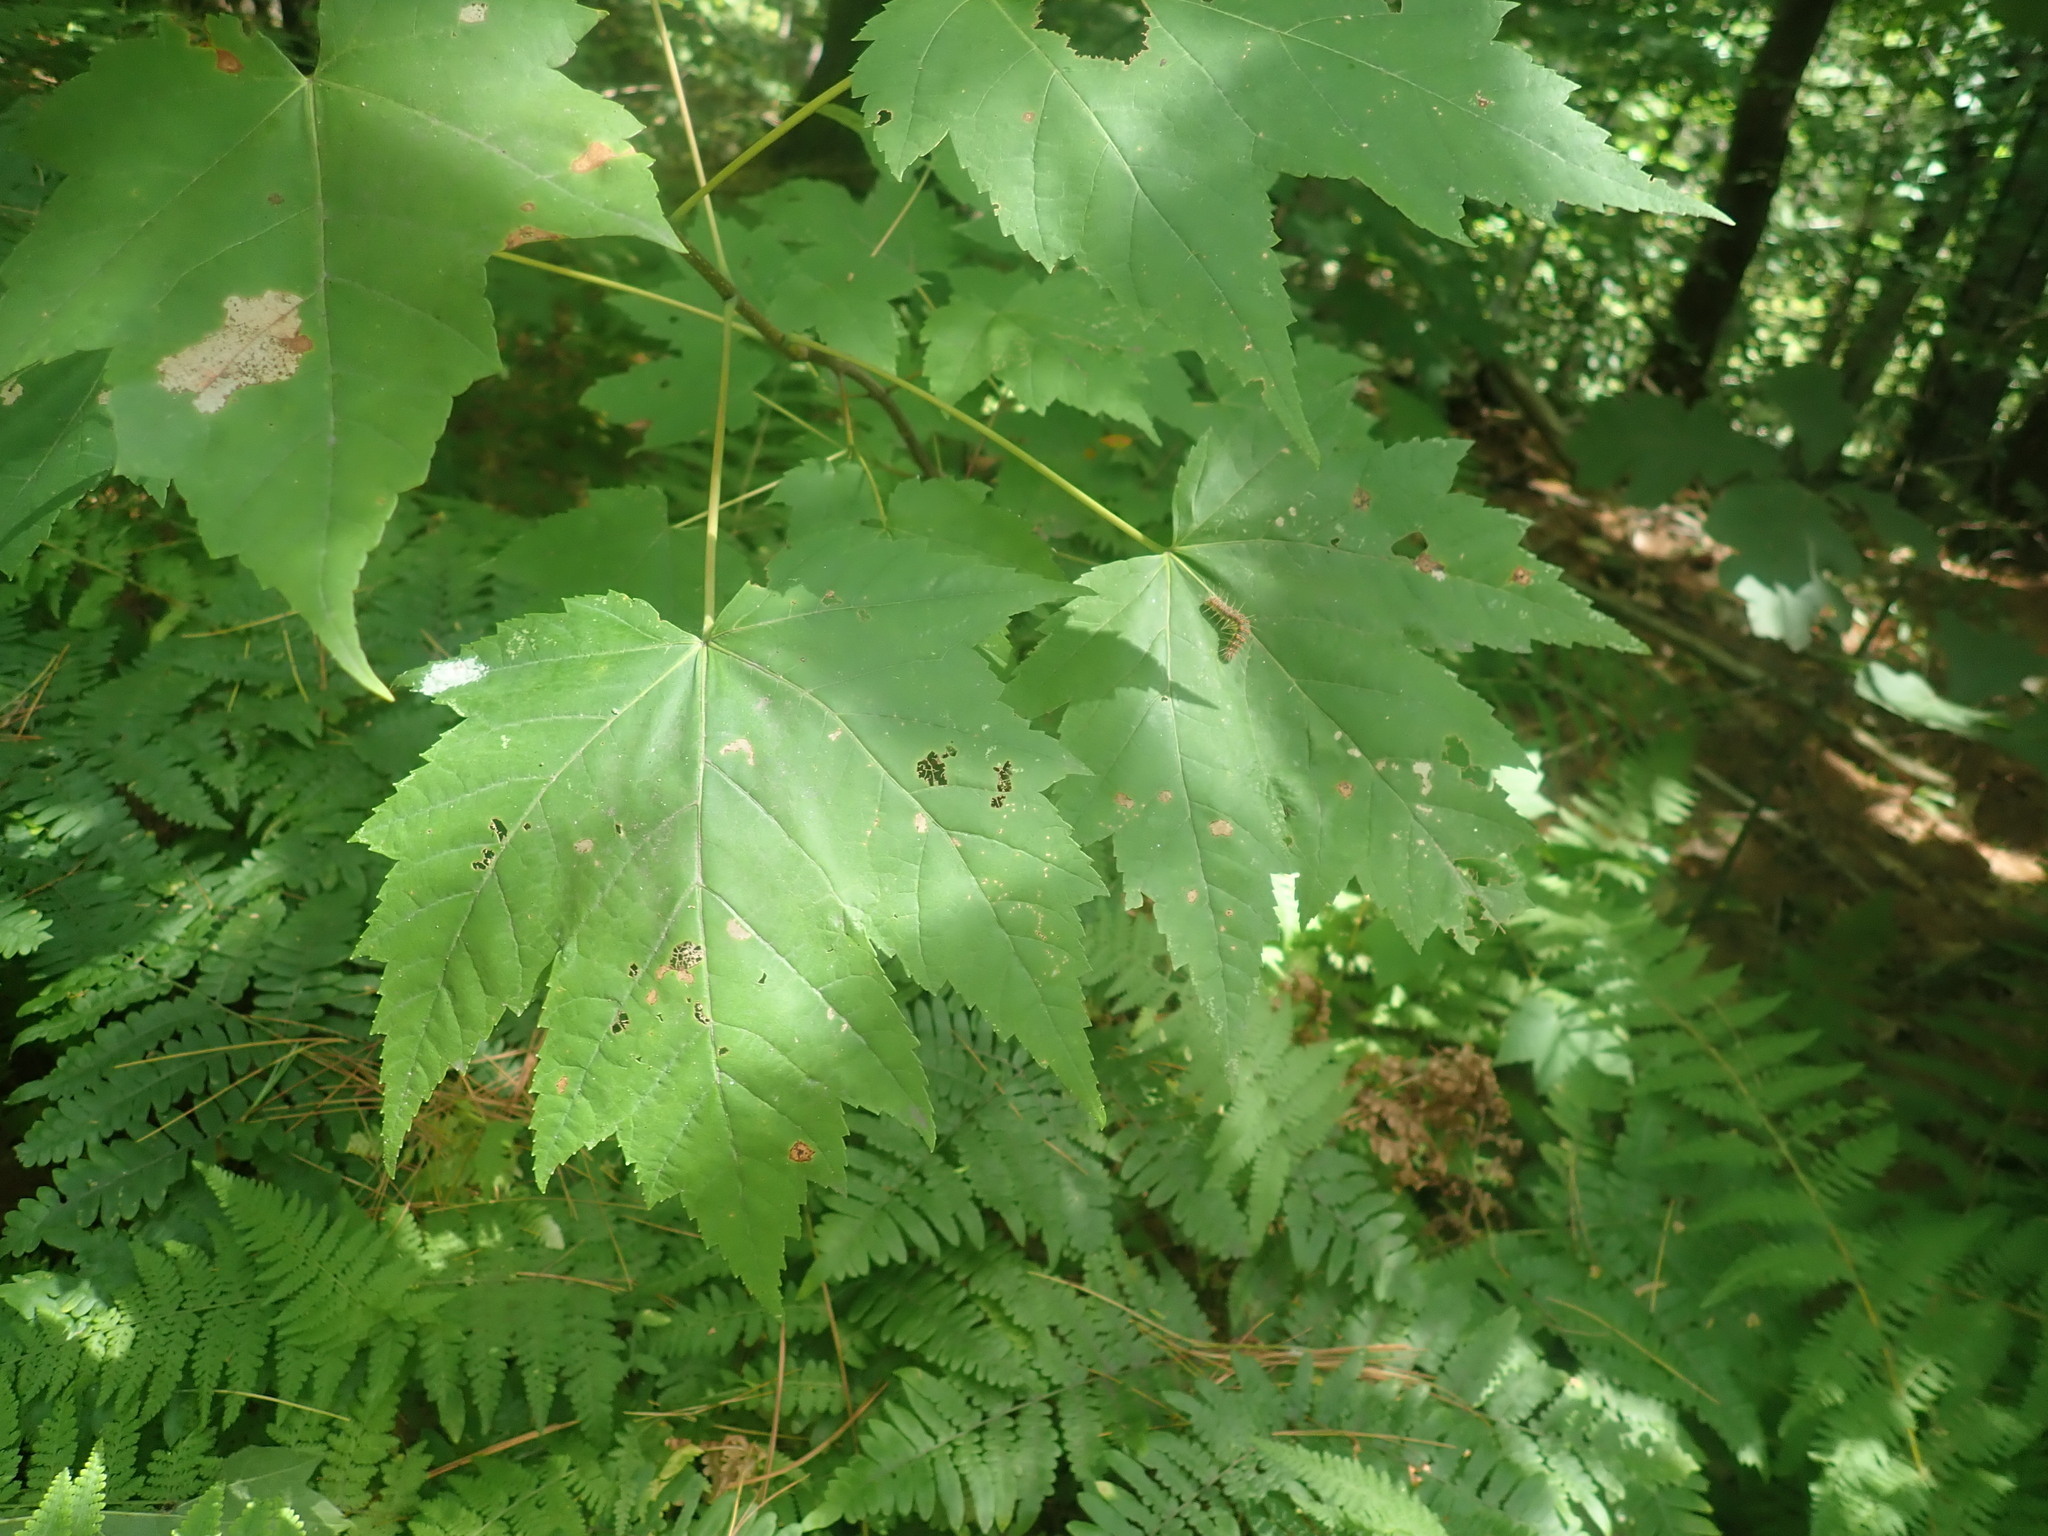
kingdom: Plantae
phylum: Tracheophyta
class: Magnoliopsida
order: Sapindales
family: Sapindaceae
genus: Acer
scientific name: Acer rubrum
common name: Red maple
